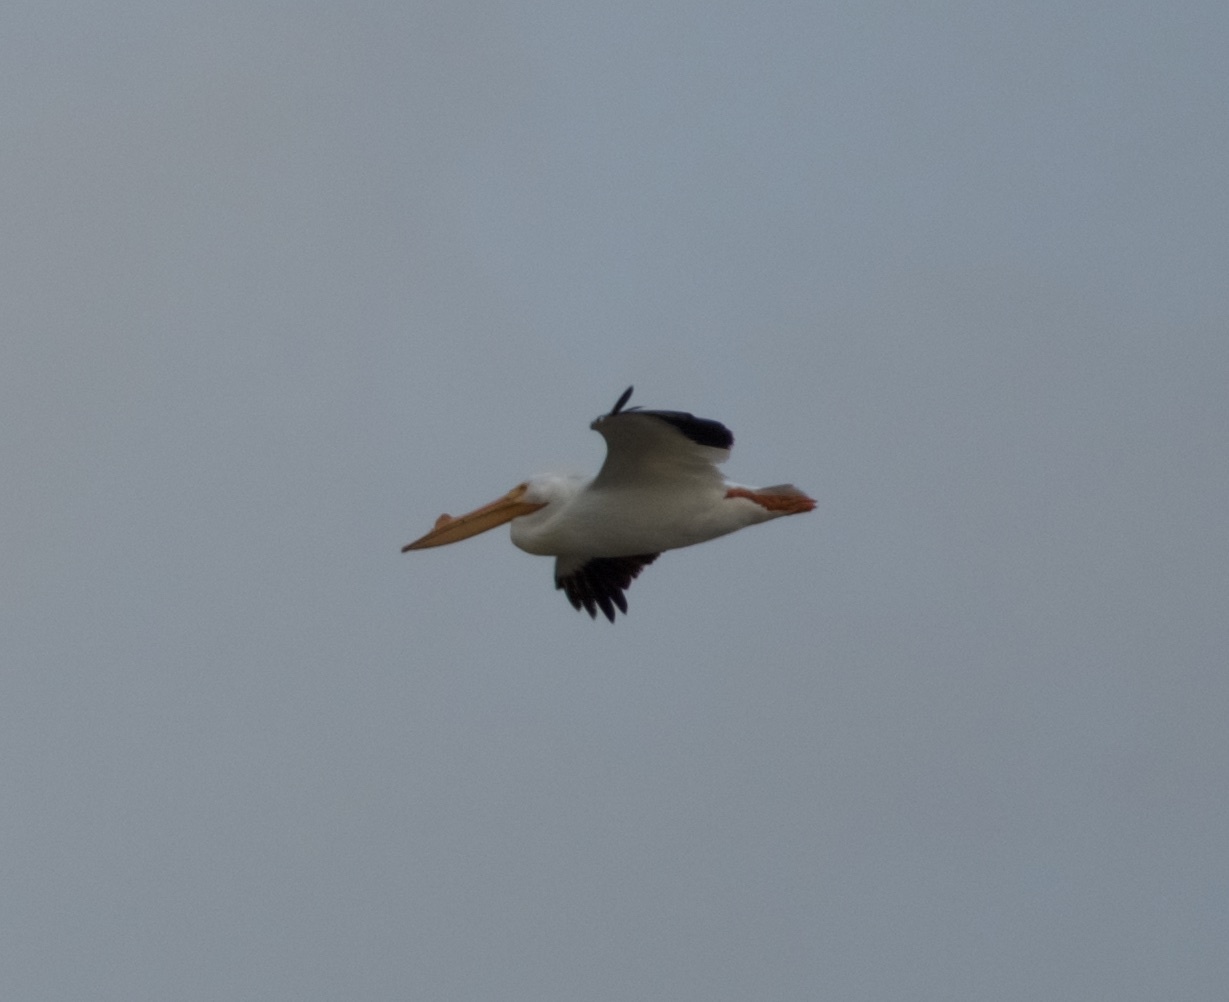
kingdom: Animalia
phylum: Chordata
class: Aves
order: Pelecaniformes
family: Pelecanidae
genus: Pelecanus
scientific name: Pelecanus erythrorhynchos
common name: American white pelican
